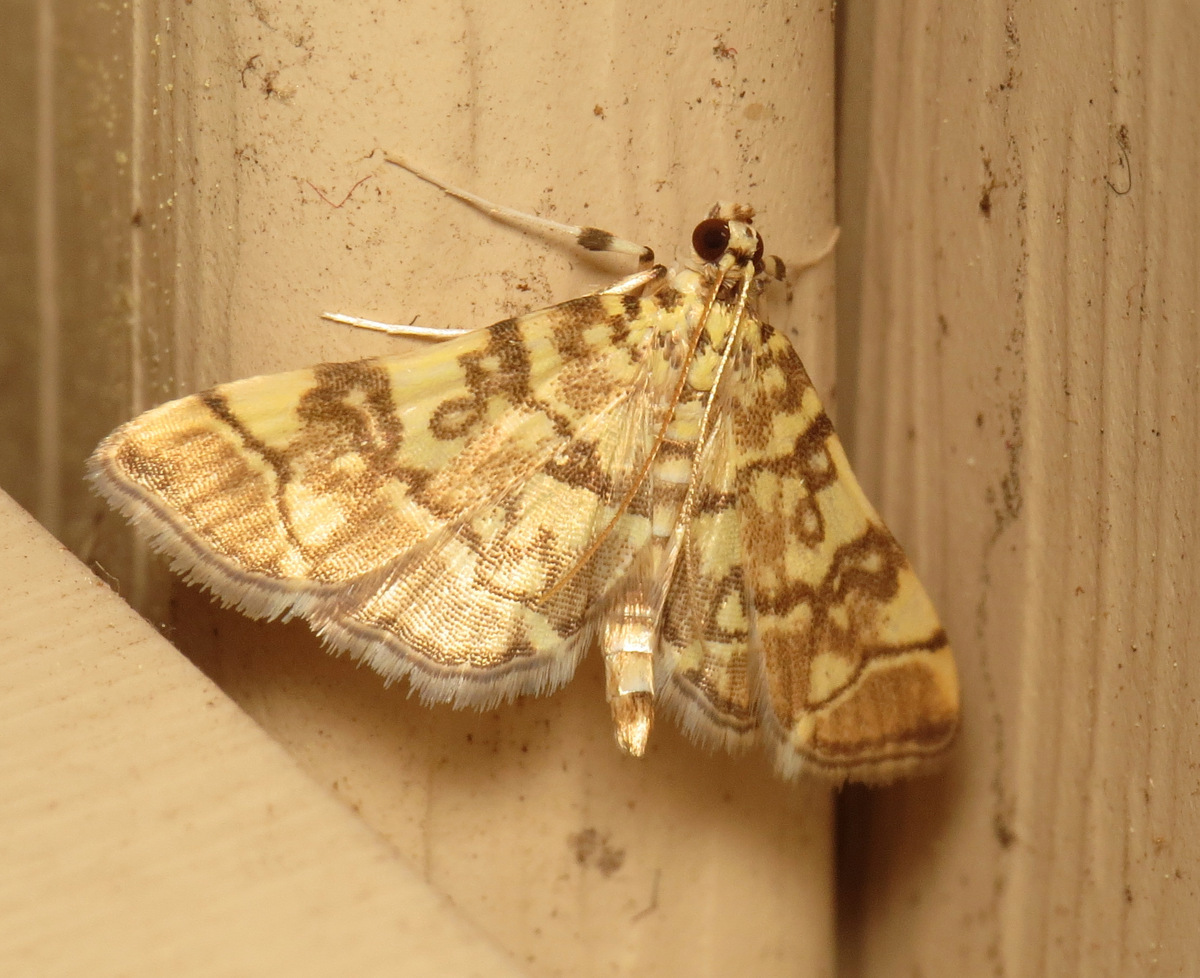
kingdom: Animalia
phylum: Arthropoda
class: Insecta
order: Lepidoptera
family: Crambidae
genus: Apogeshna
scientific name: Apogeshna stenialis
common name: Checkered apogeshna moth
